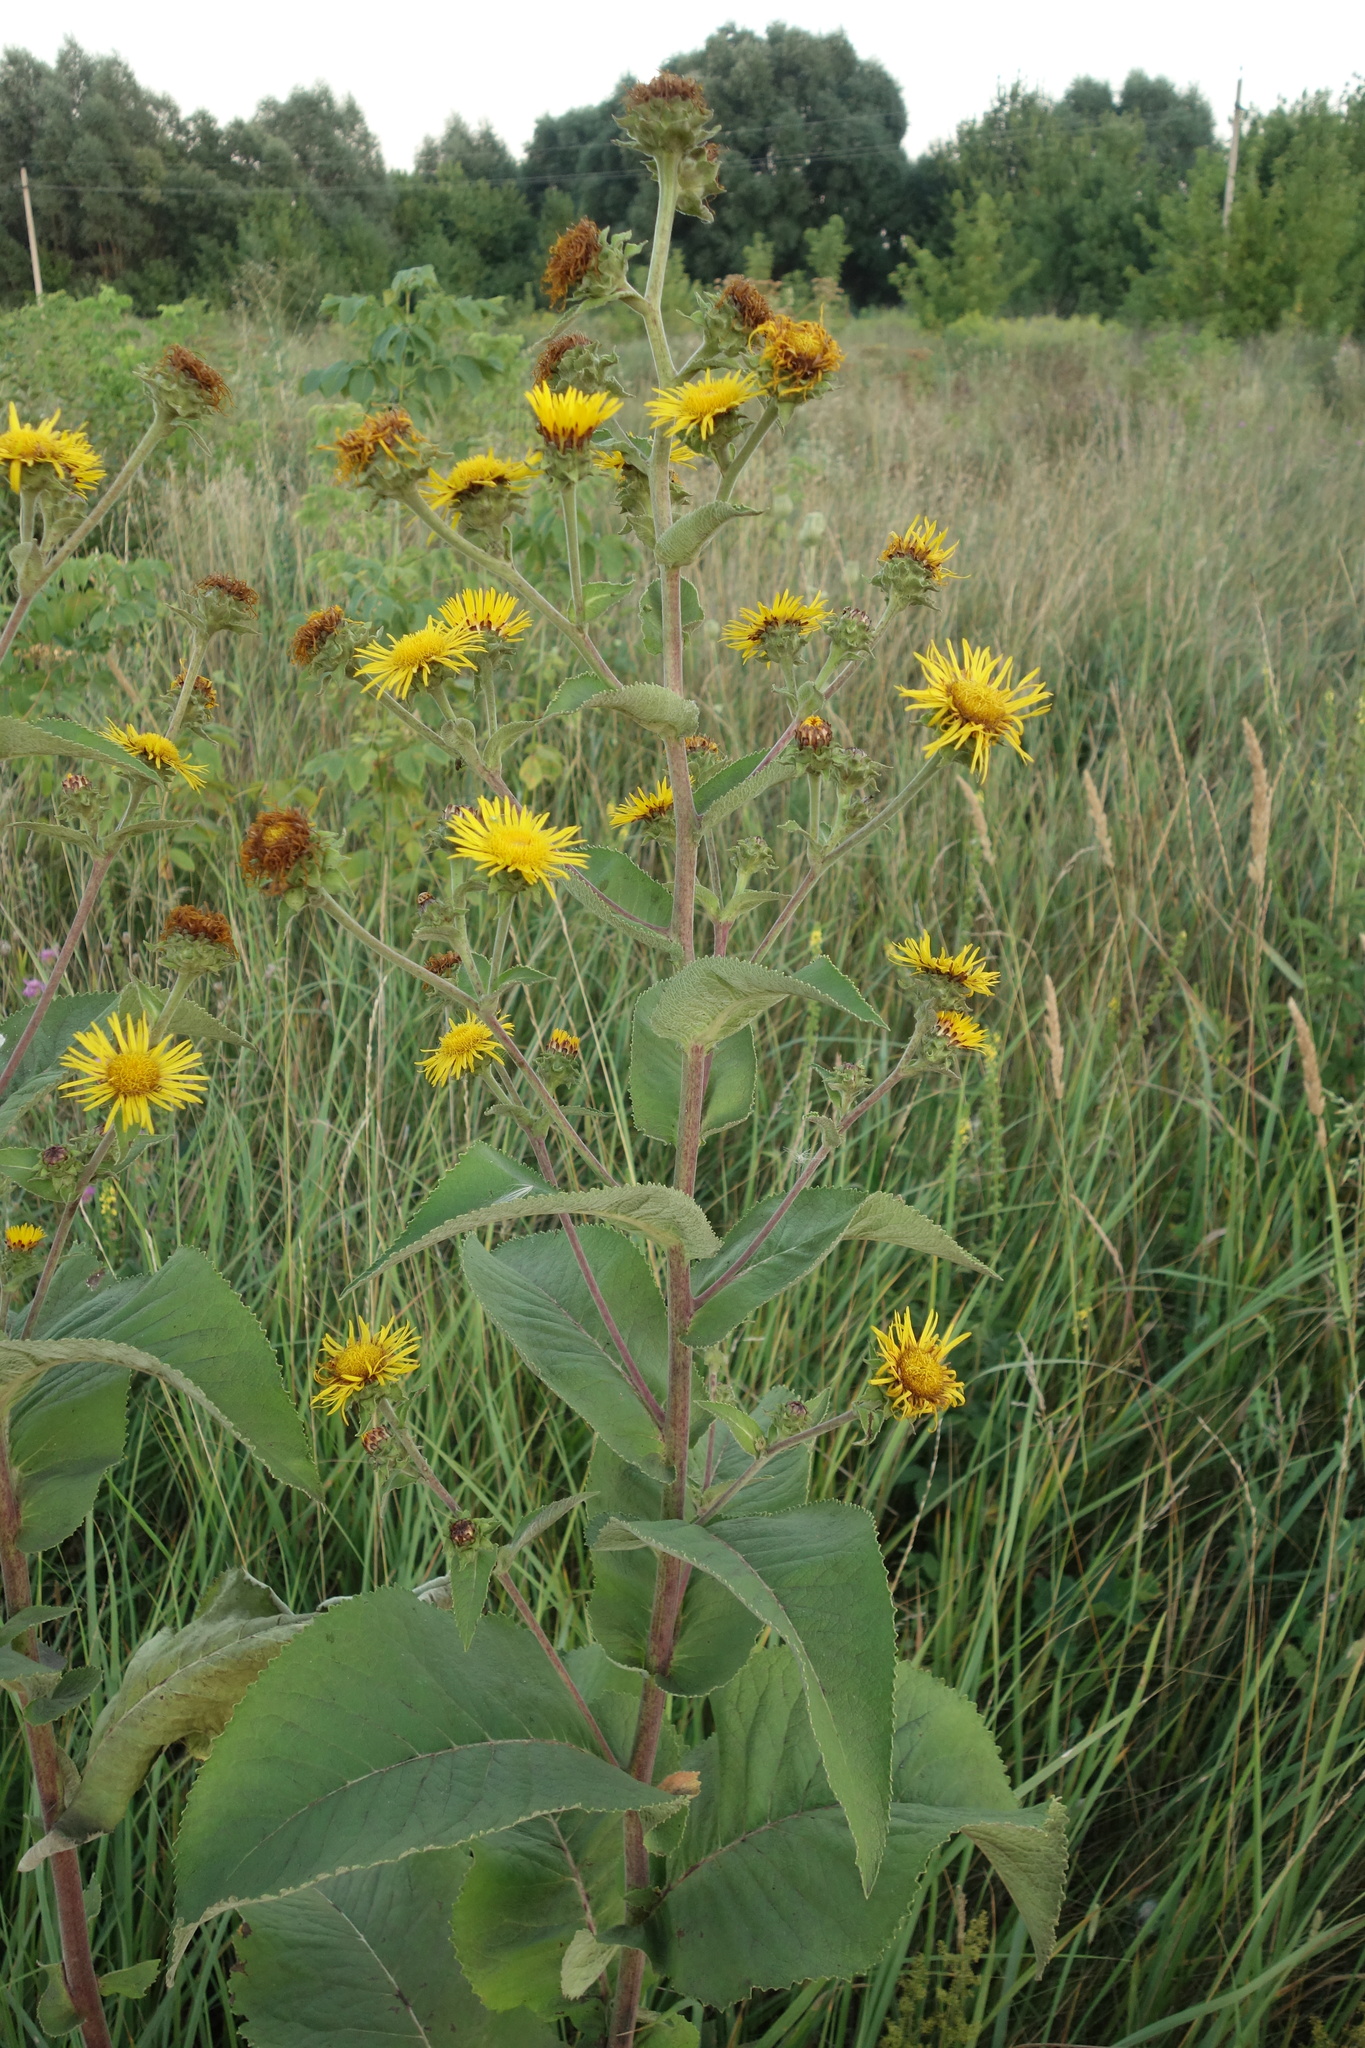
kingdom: Plantae
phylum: Tracheophyta
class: Magnoliopsida
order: Asterales
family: Asteraceae
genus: Inula
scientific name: Inula helenium
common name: Elecampane
